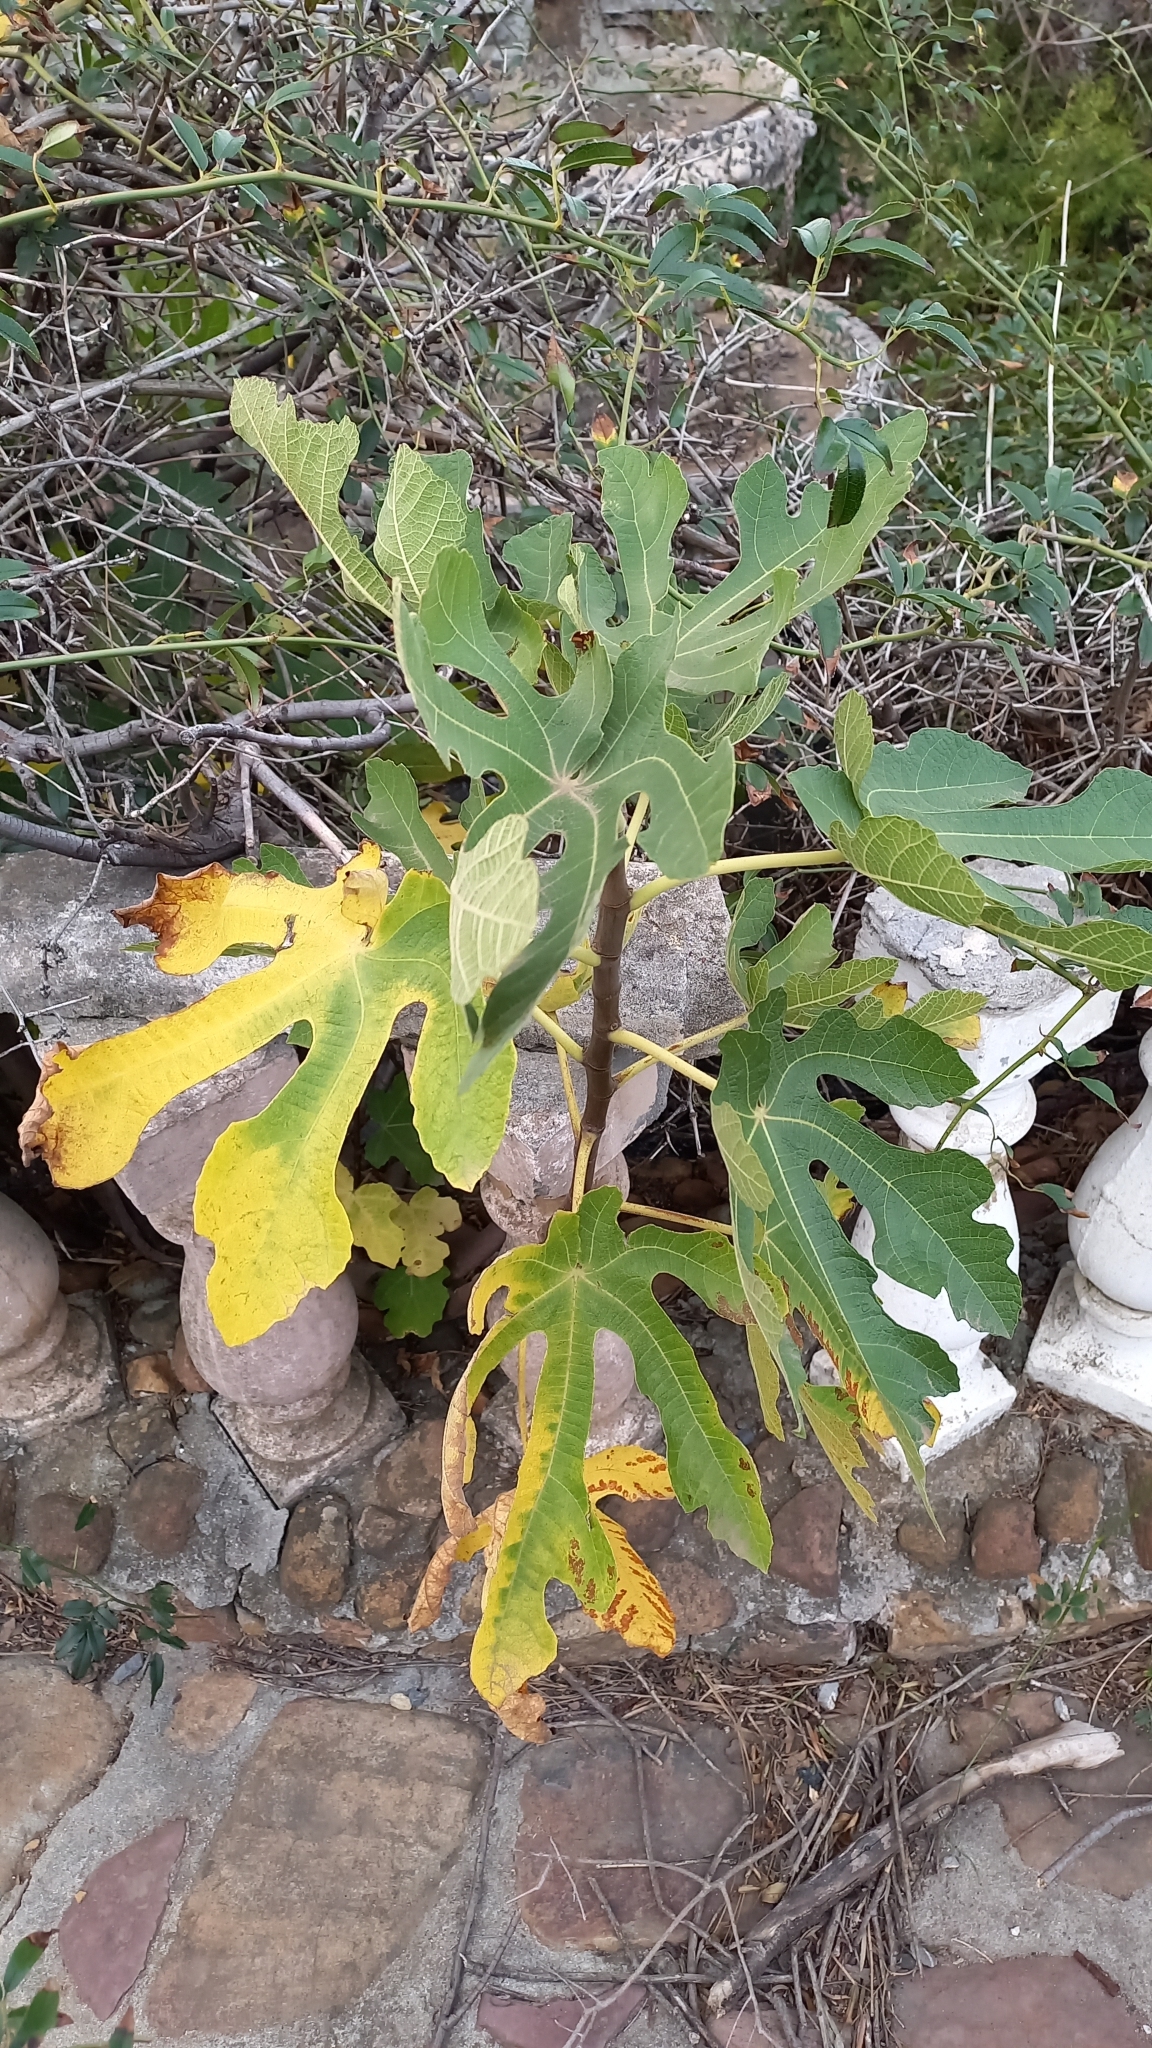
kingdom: Plantae
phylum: Tracheophyta
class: Magnoliopsida
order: Rosales
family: Moraceae
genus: Ficus
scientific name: Ficus carica
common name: Fig
